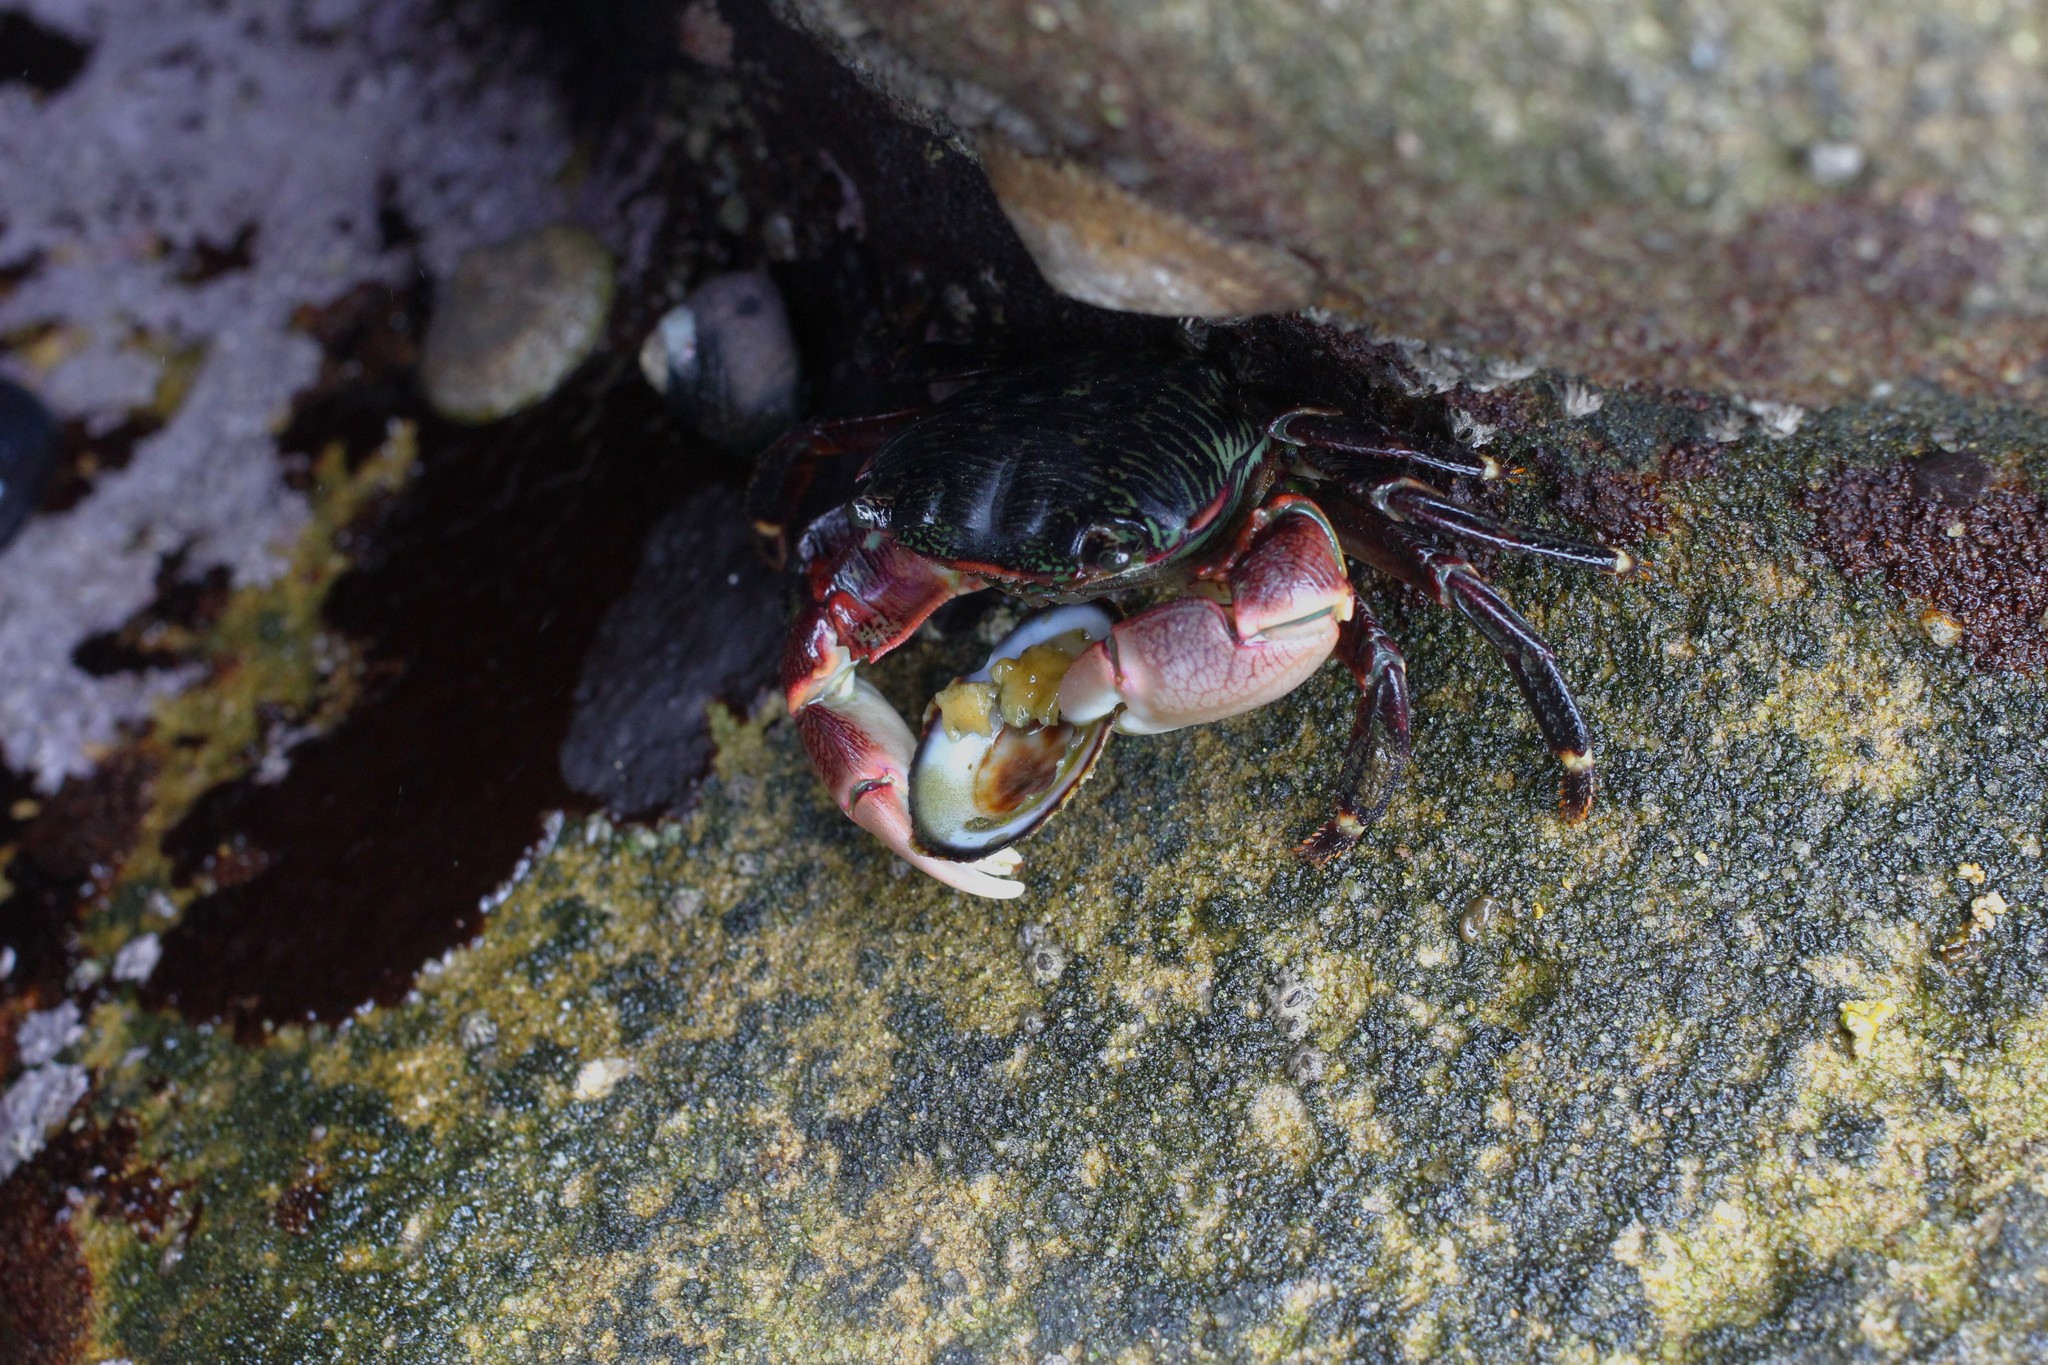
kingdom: Animalia
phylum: Arthropoda
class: Malacostraca
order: Decapoda
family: Grapsidae
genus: Pachygrapsus
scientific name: Pachygrapsus crassipes
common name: Striped shore crab
